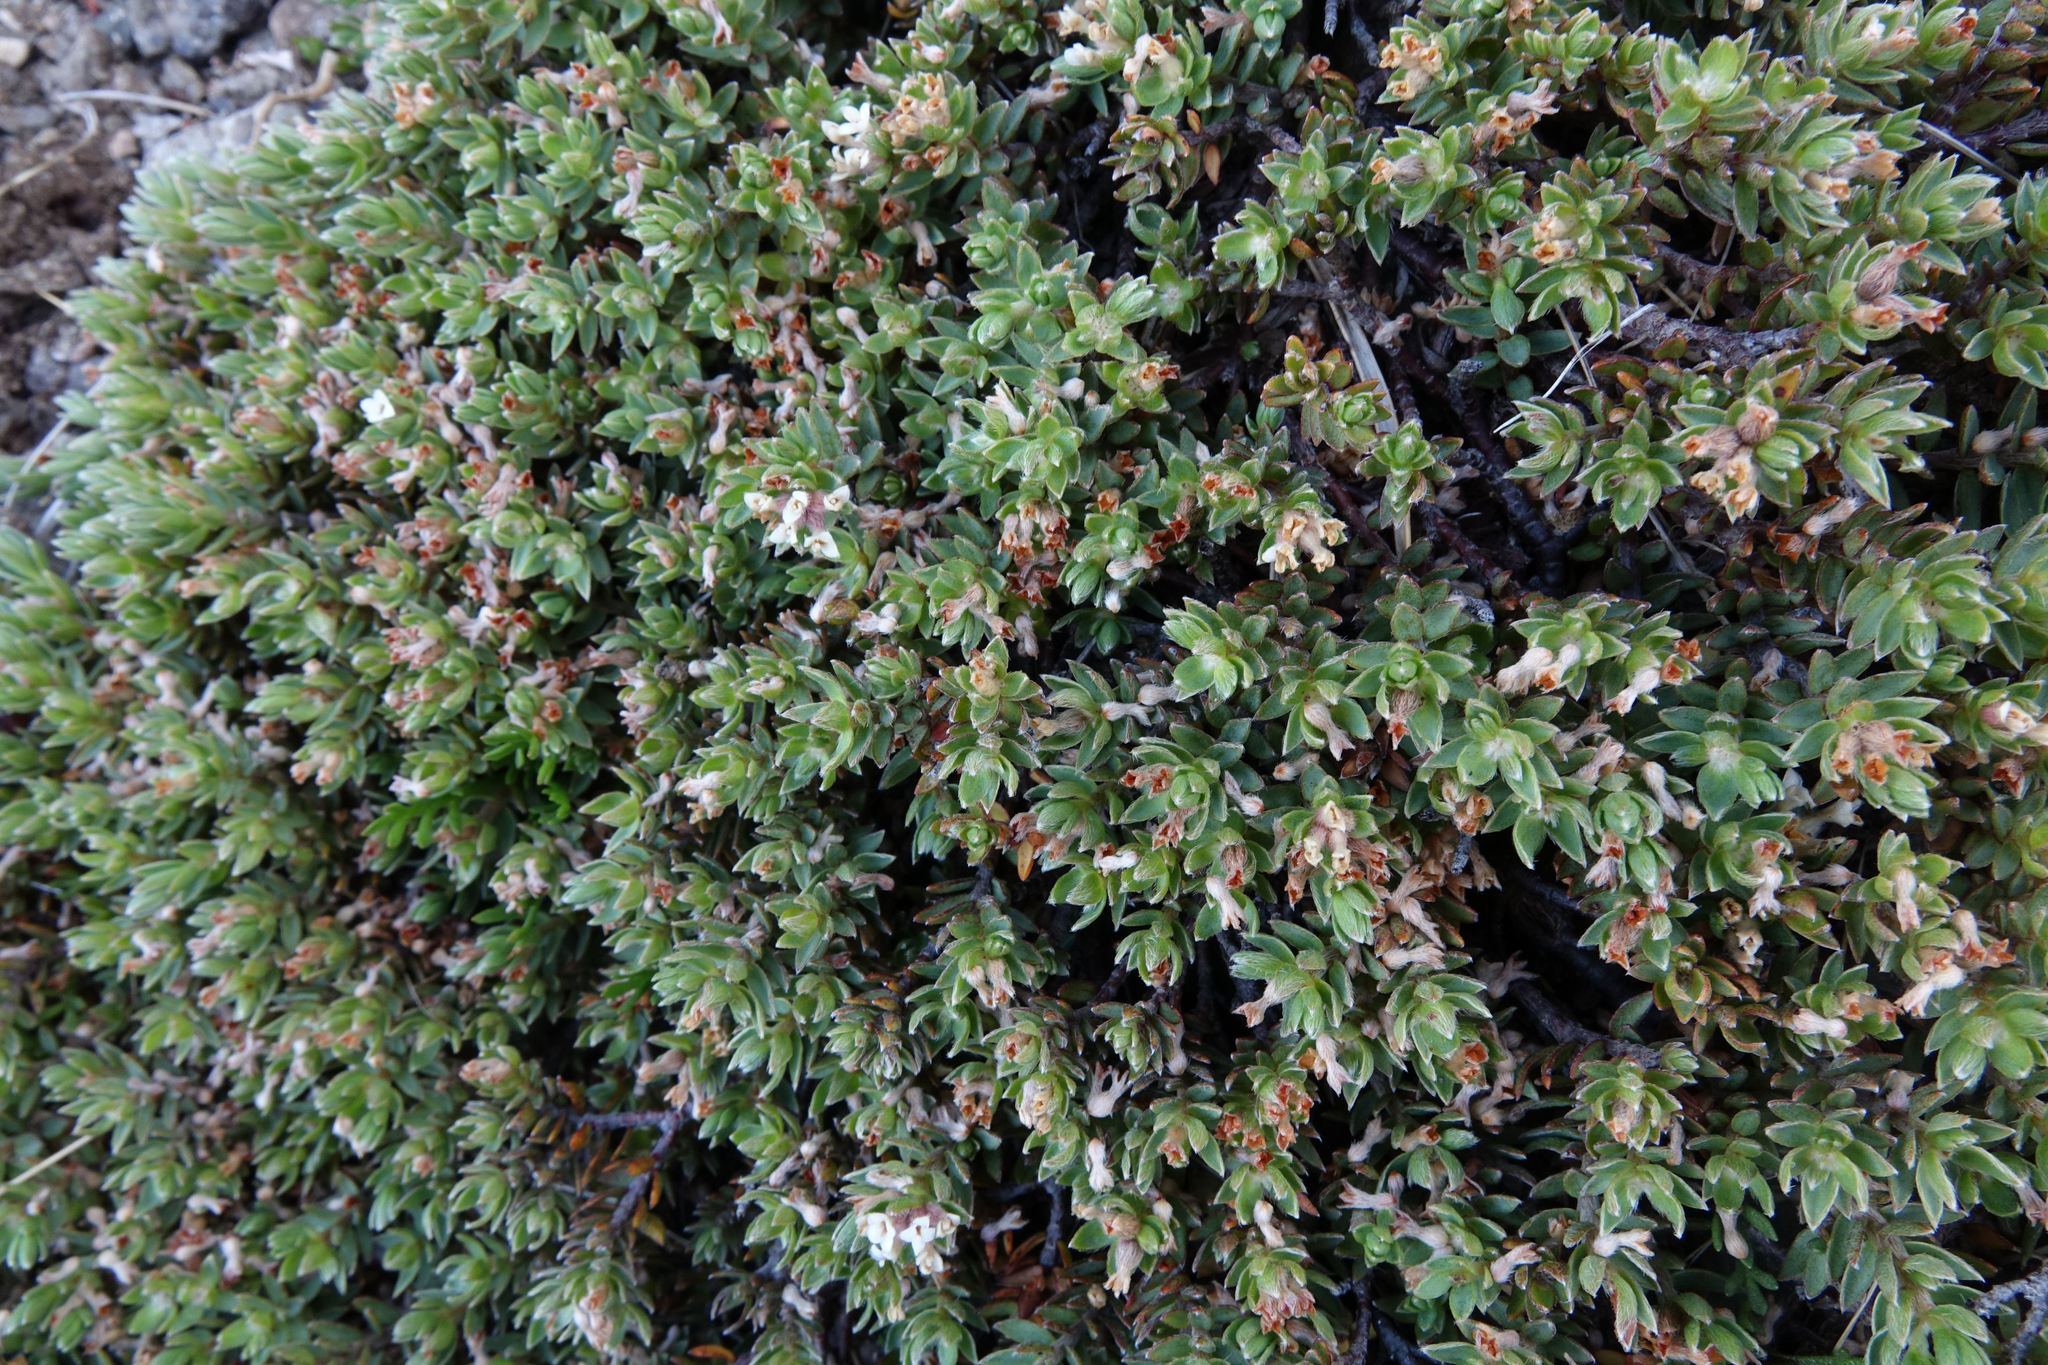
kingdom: Plantae
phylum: Tracheophyta
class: Magnoliopsida
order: Malvales
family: Thymelaeaceae
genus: Pimelea
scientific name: Pimelea notia
